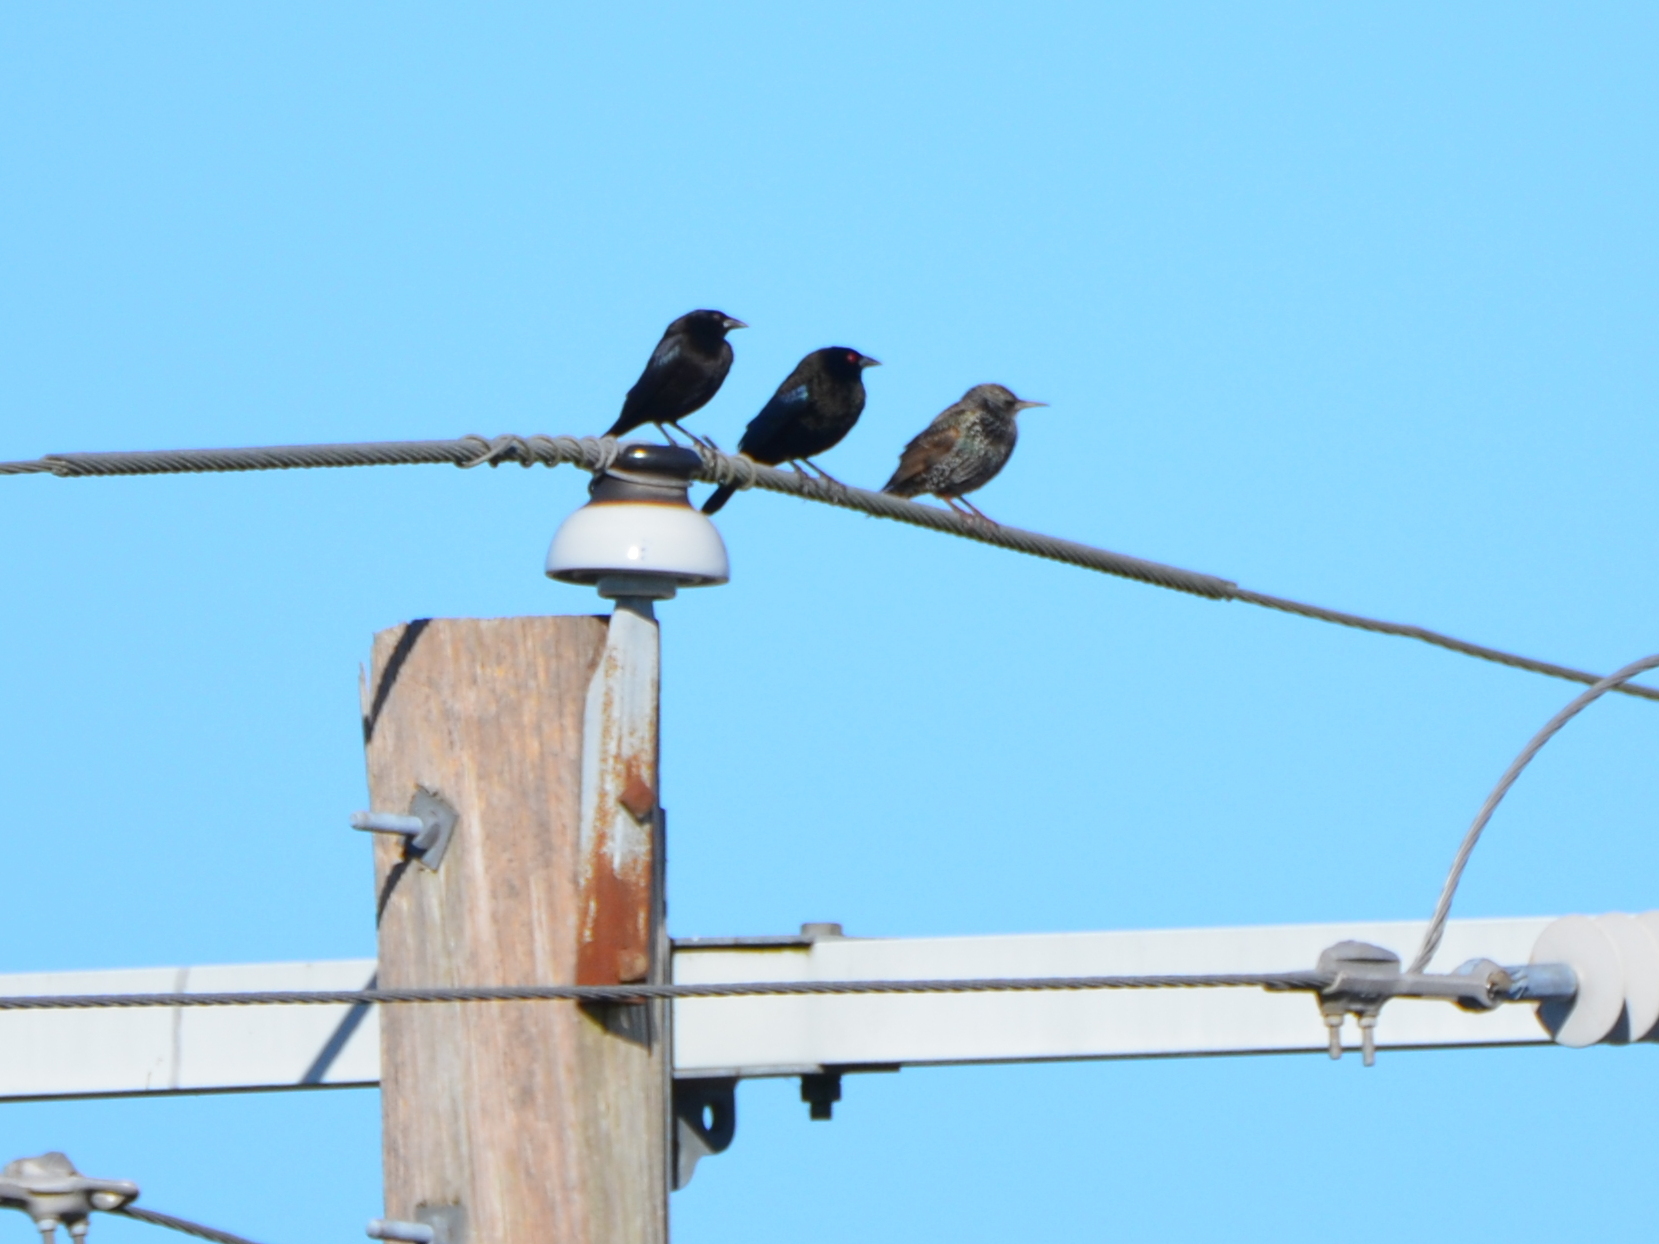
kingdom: Animalia
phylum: Chordata
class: Aves
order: Passeriformes
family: Icteridae
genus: Molothrus
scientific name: Molothrus aeneus
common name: Bronzed cowbird
